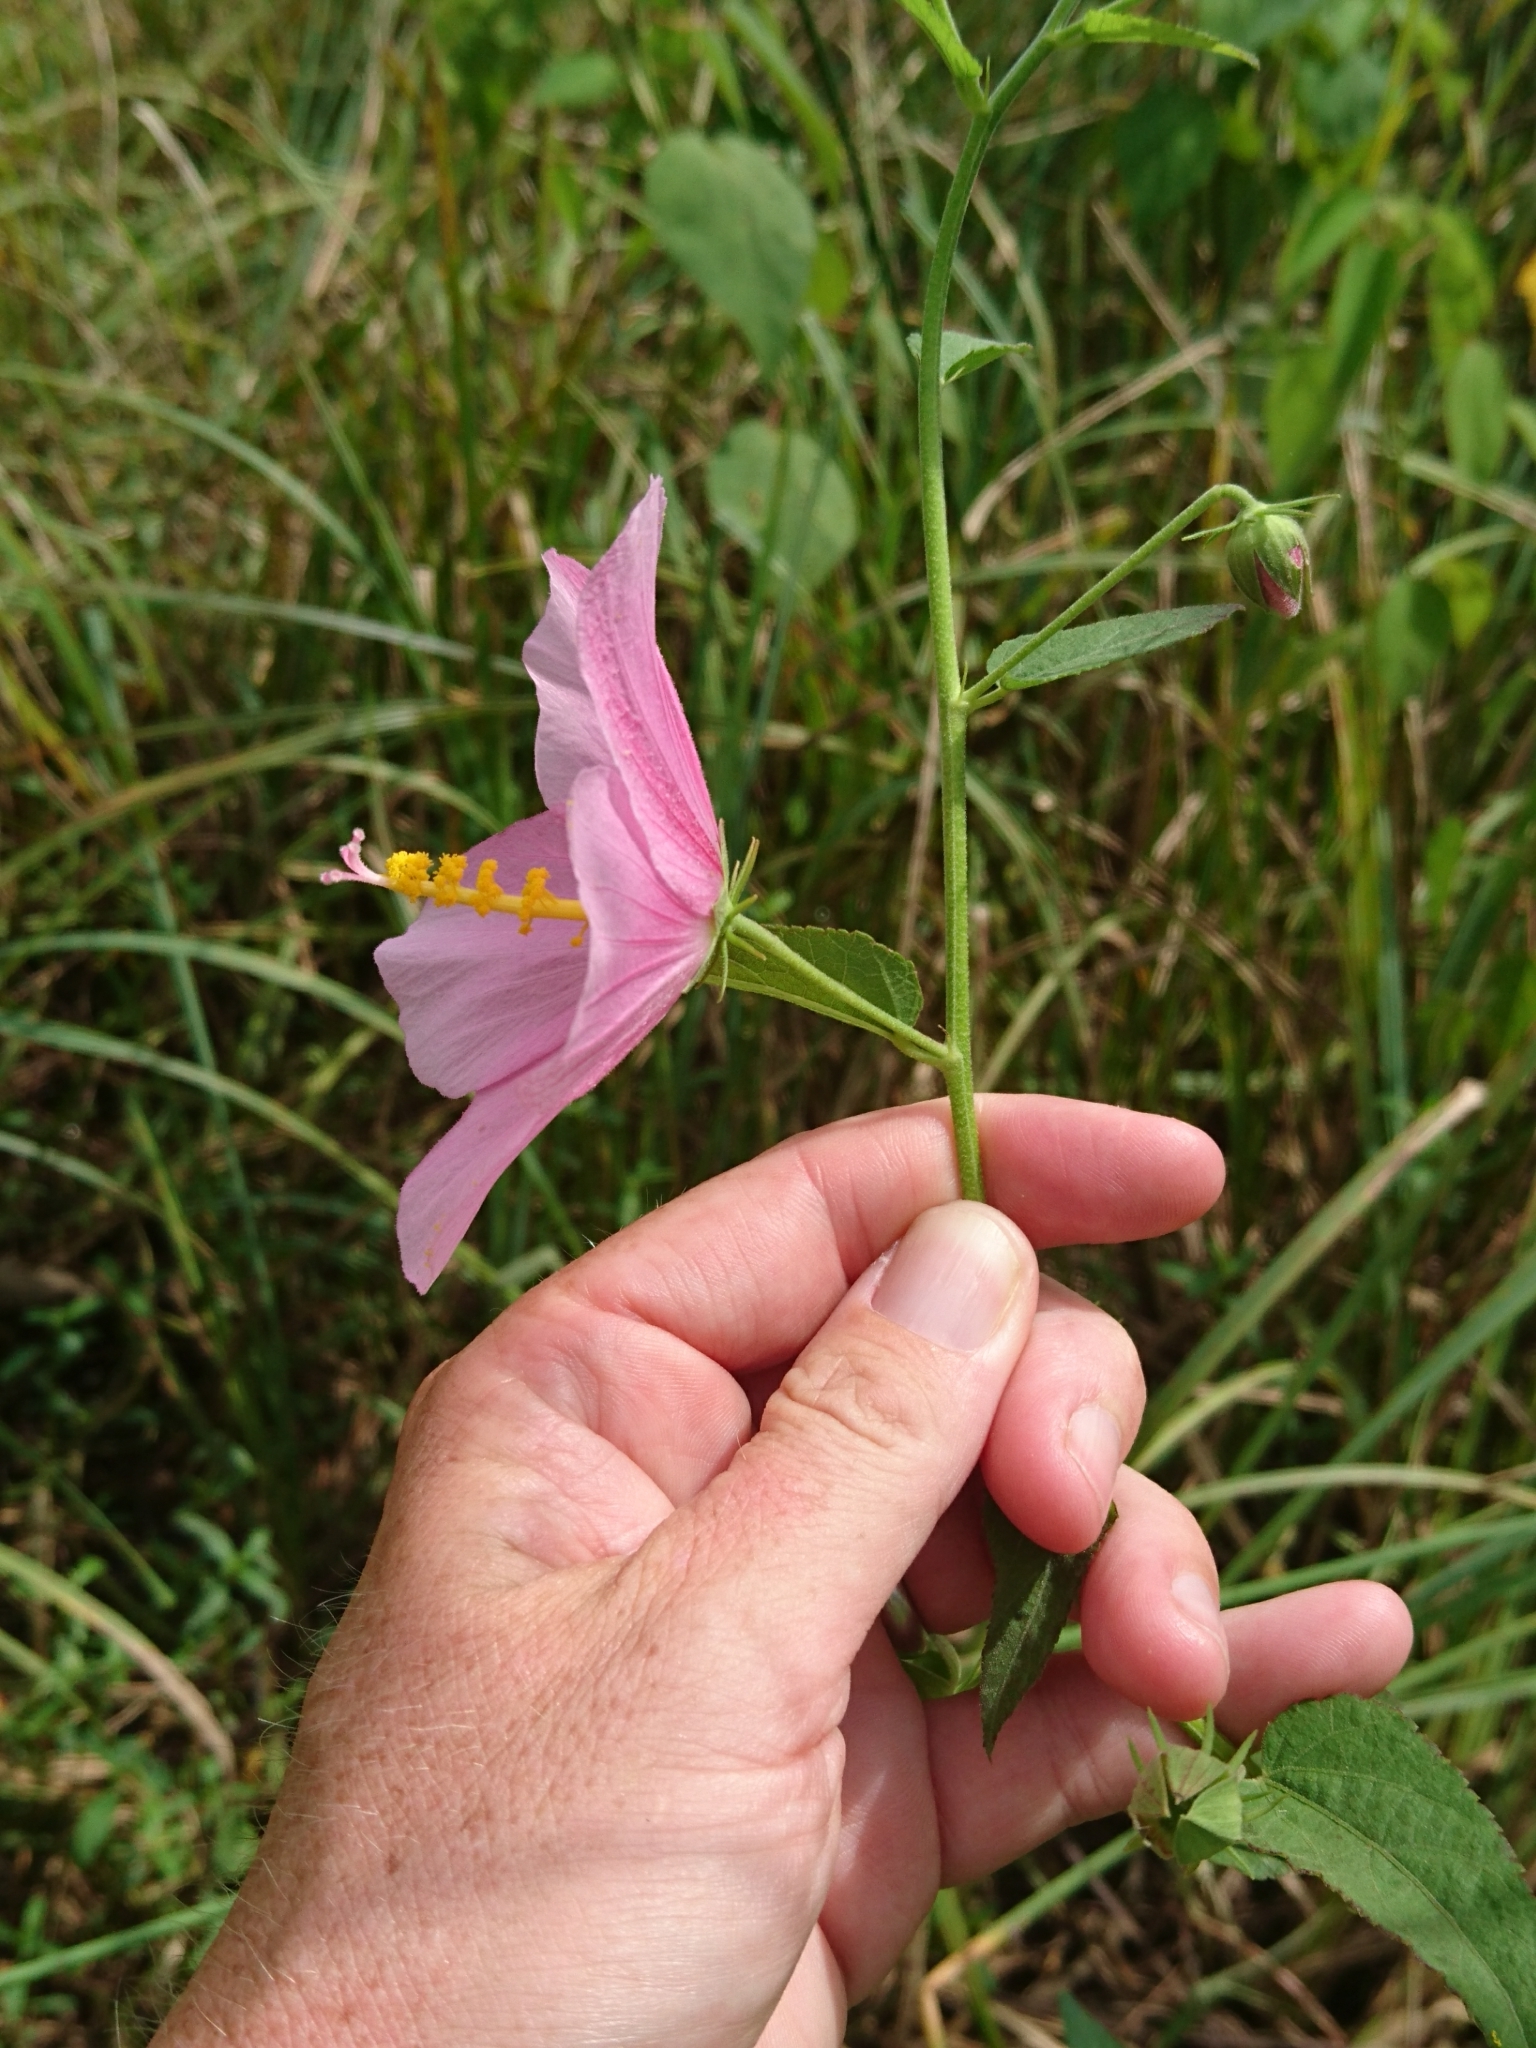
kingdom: Plantae
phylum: Tracheophyta
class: Magnoliopsida
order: Malvales
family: Malvaceae
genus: Kosteletzkya
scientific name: Kosteletzkya pentacarpos
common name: Virginia saltmarsh mallow
